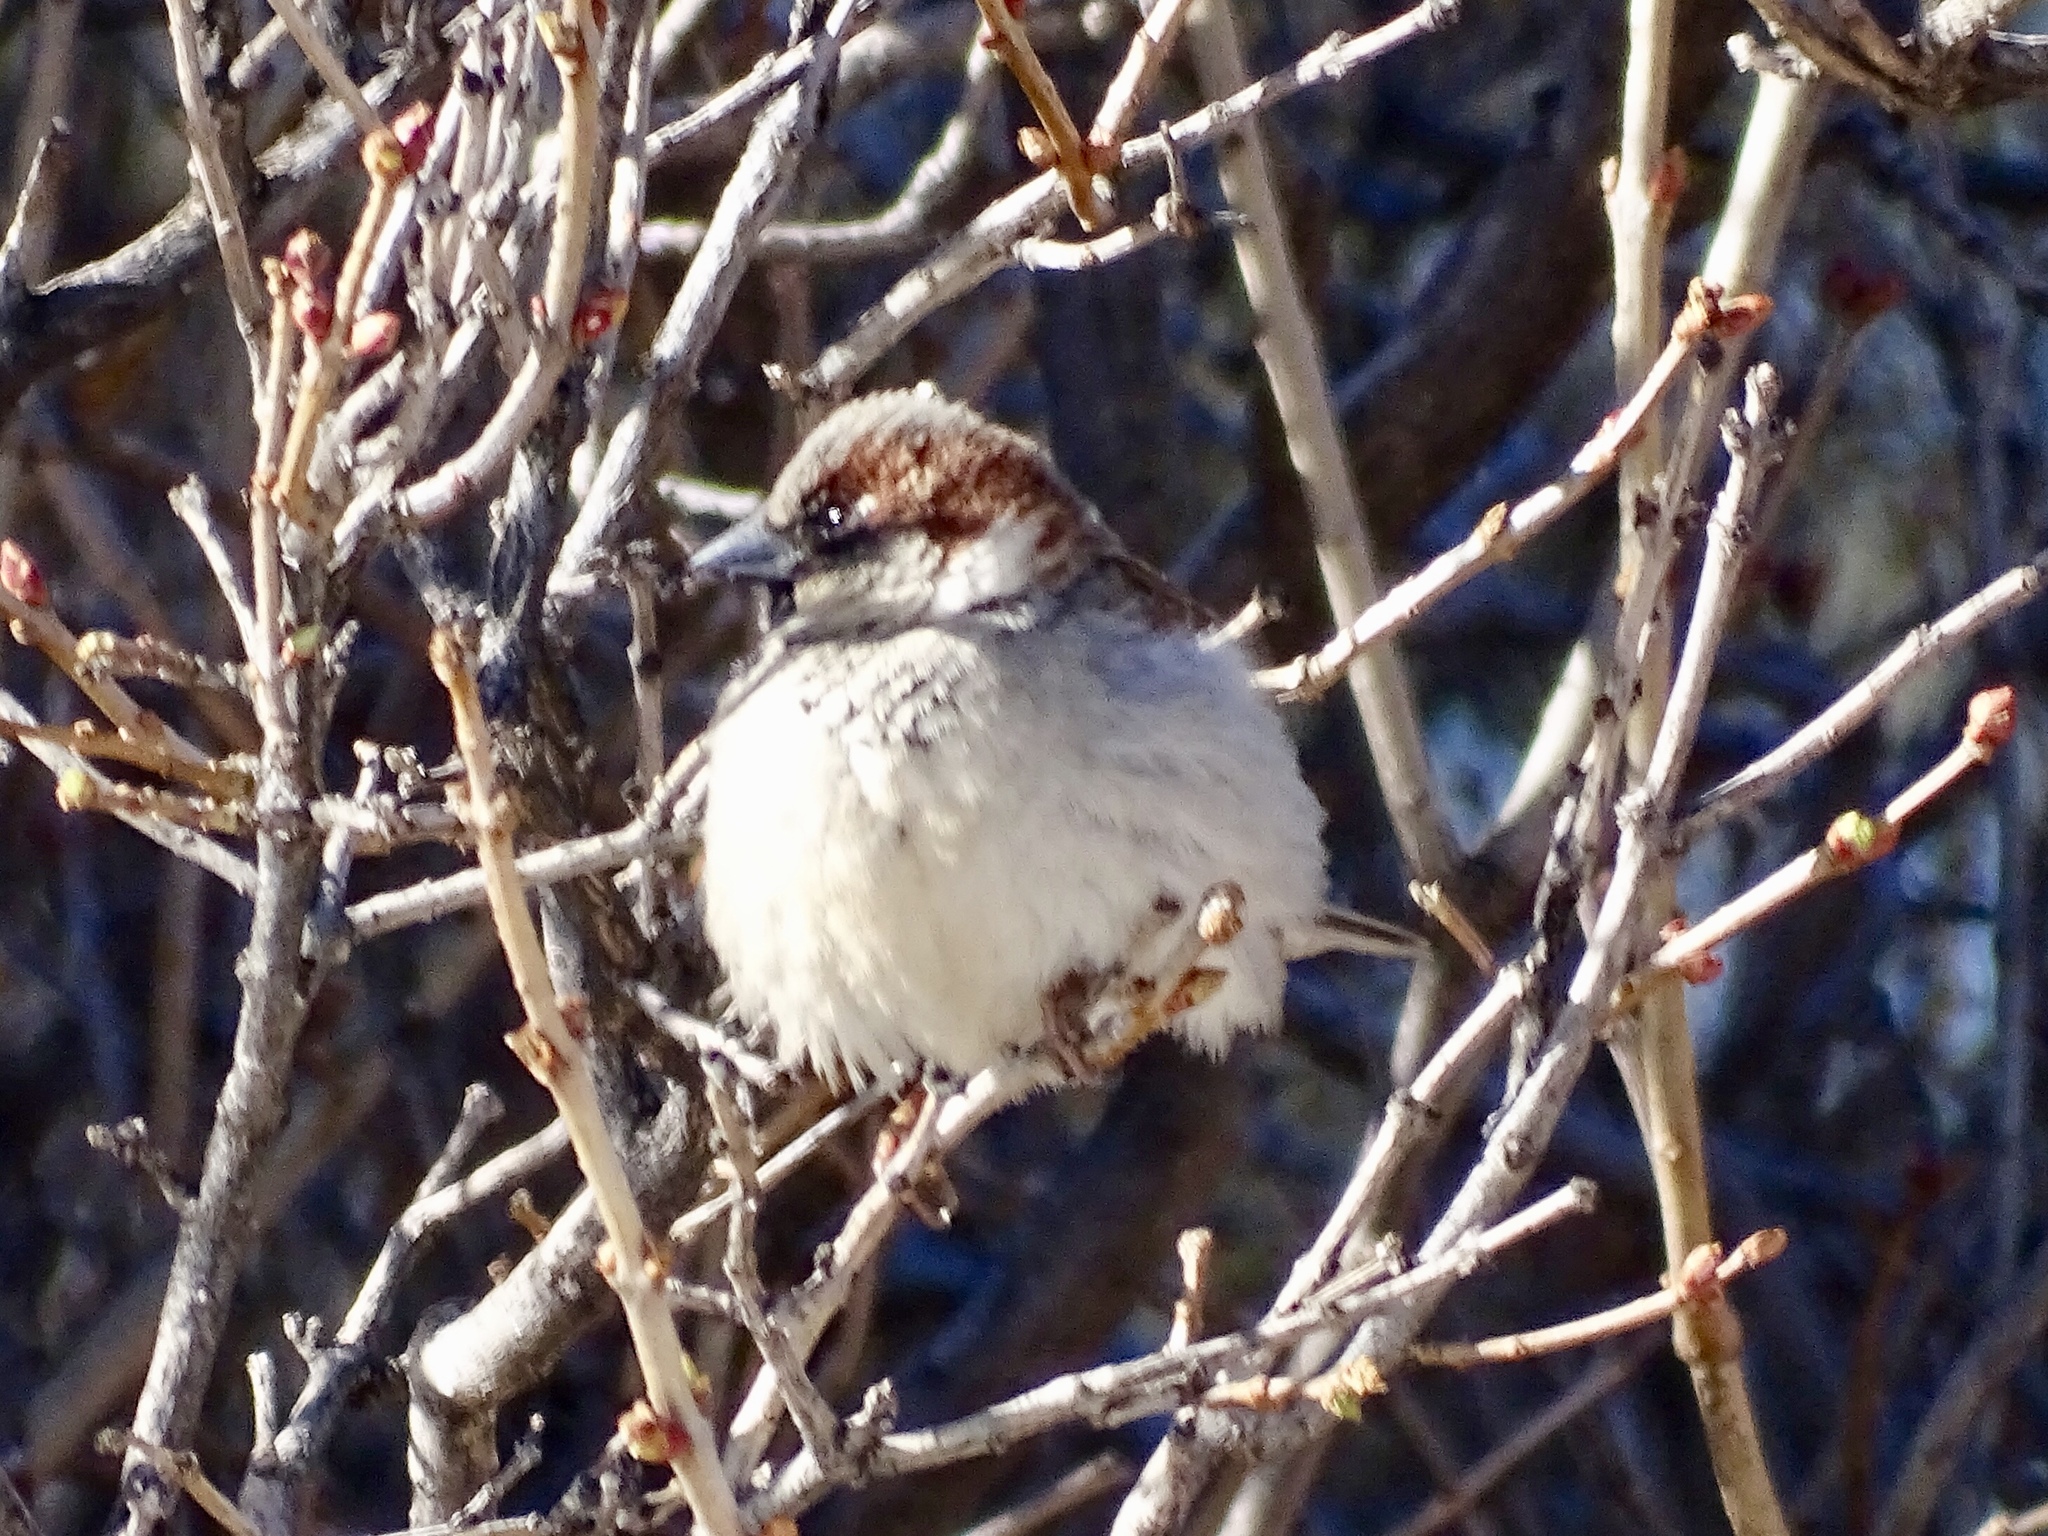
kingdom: Animalia
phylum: Chordata
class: Aves
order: Passeriformes
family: Passeridae
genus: Passer
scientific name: Passer domesticus
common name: House sparrow
